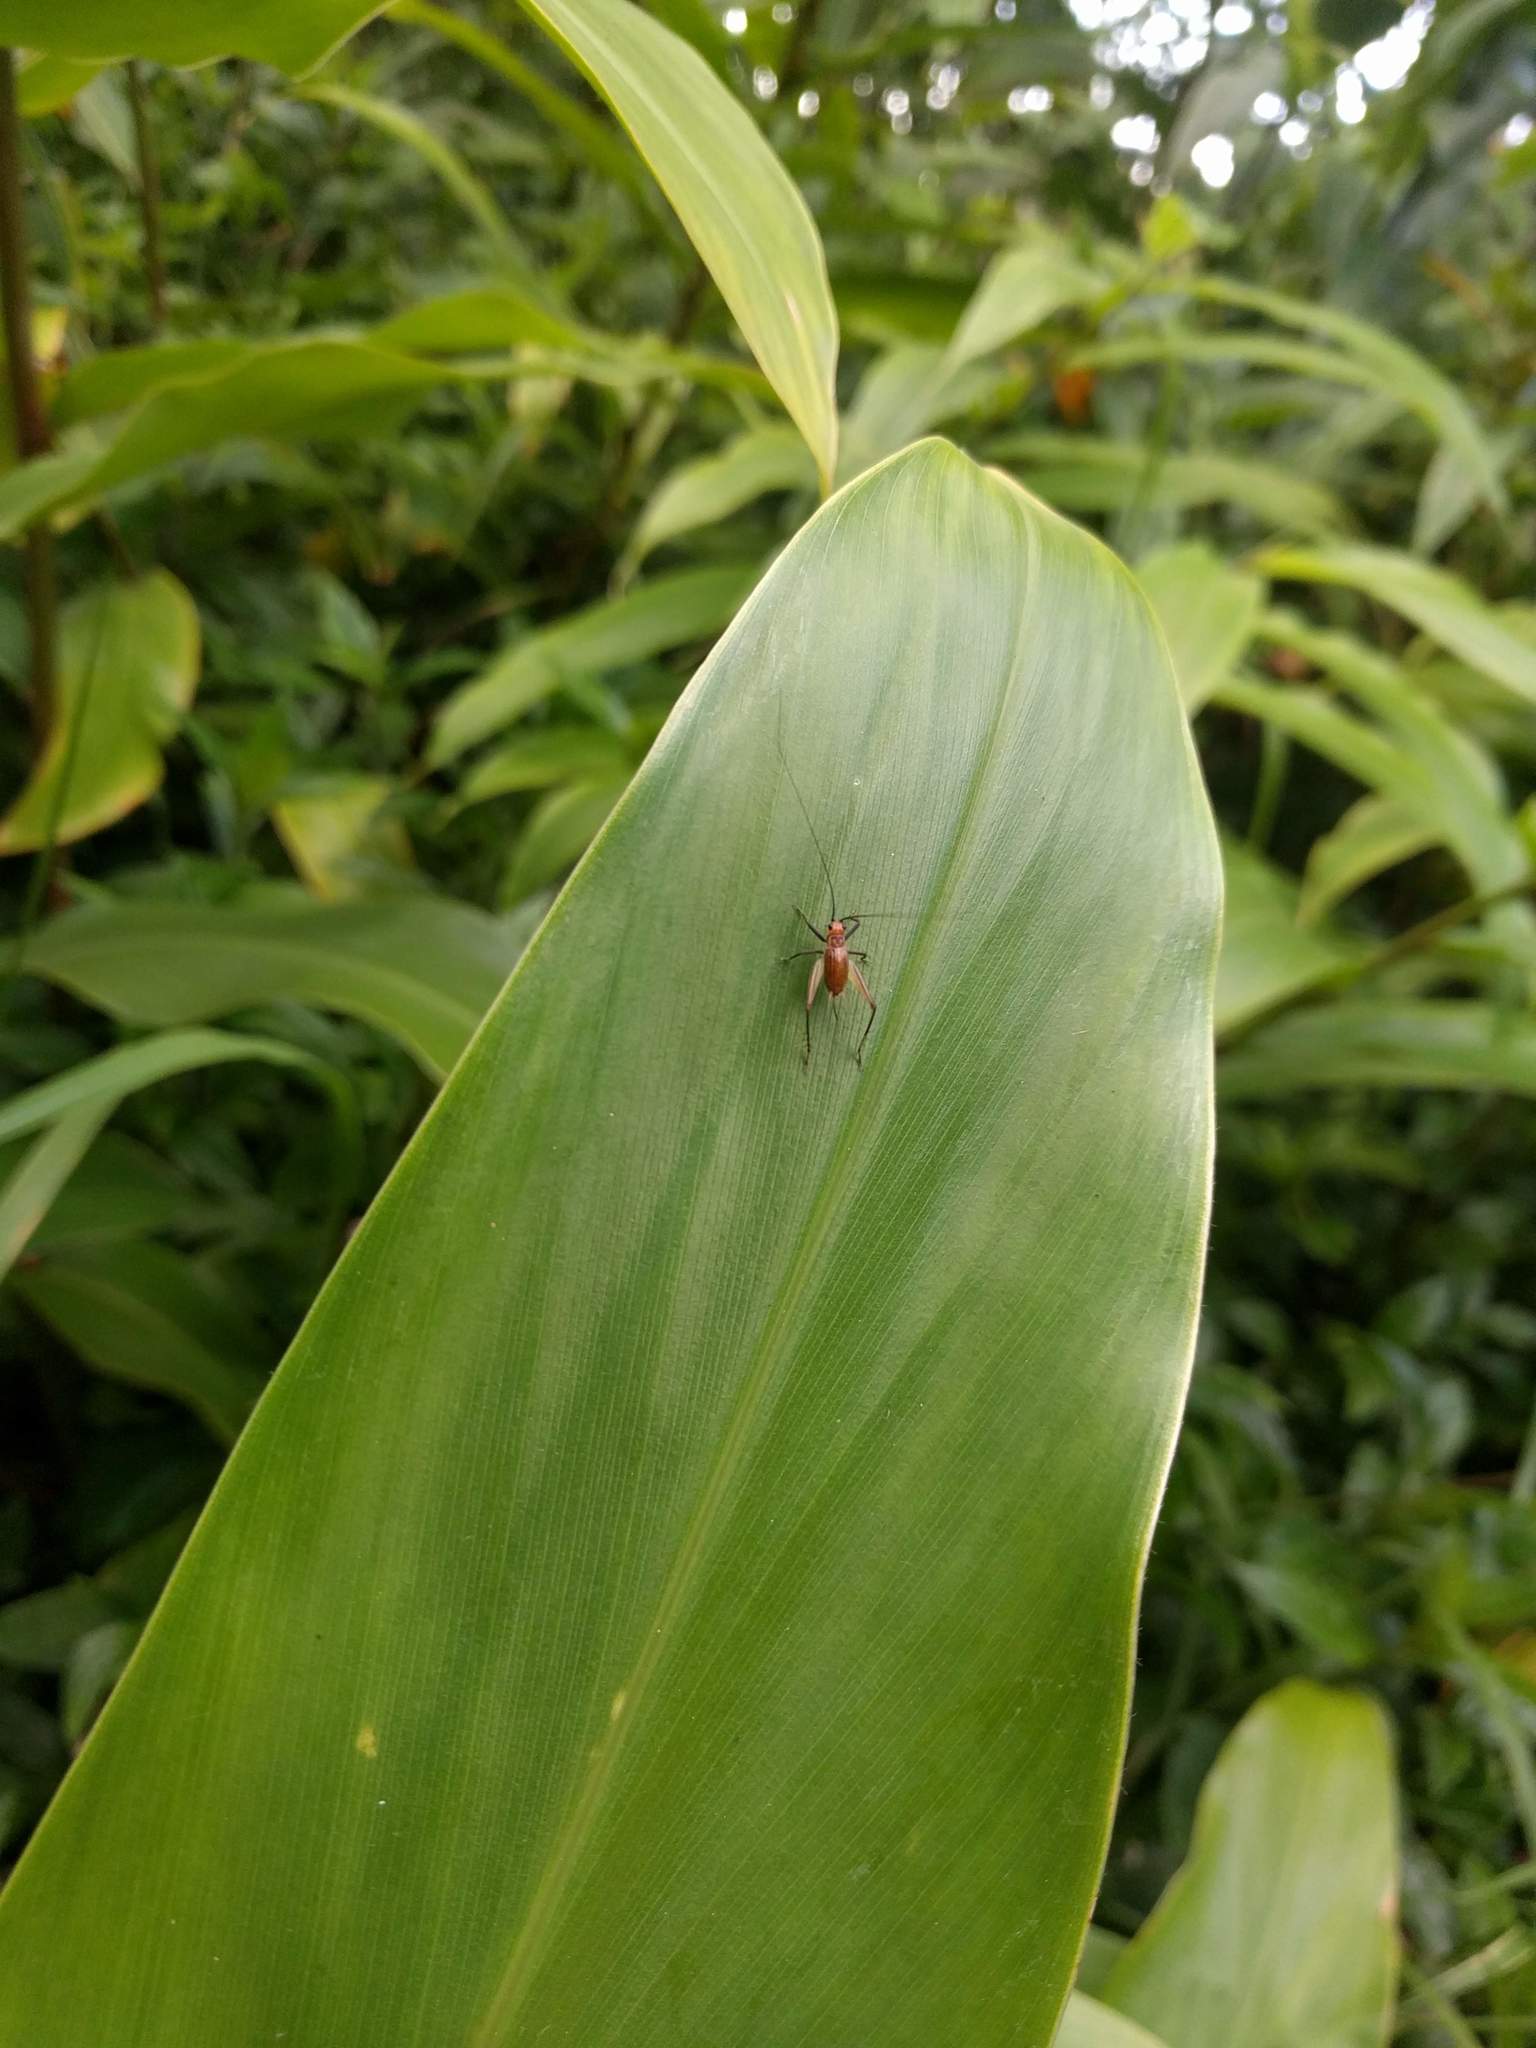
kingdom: Animalia
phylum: Arthropoda
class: Insecta
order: Orthoptera
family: Trigonidiidae
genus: Nanixipha
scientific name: Nanixipha nahoa
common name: Truncated true katydid
